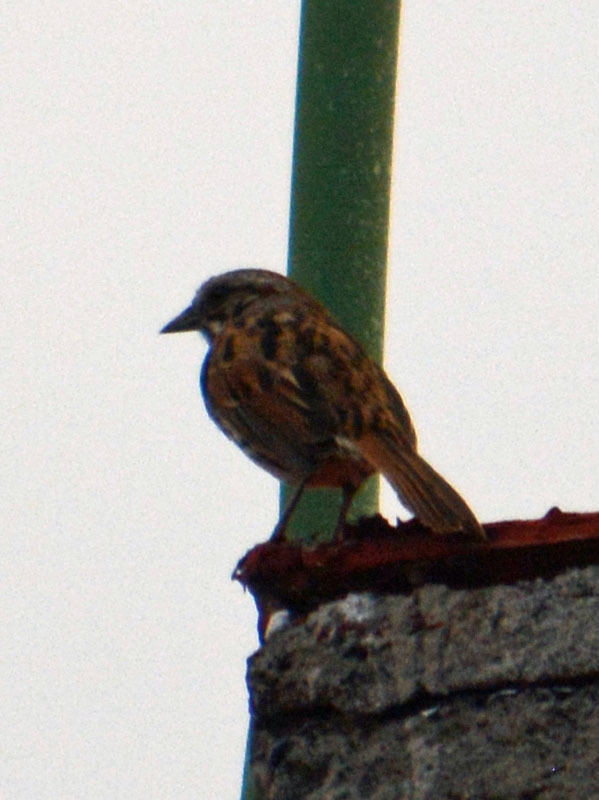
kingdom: Animalia
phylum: Chordata
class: Aves
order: Passeriformes
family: Passerellidae
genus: Melospiza
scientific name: Melospiza melodia
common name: Song sparrow
